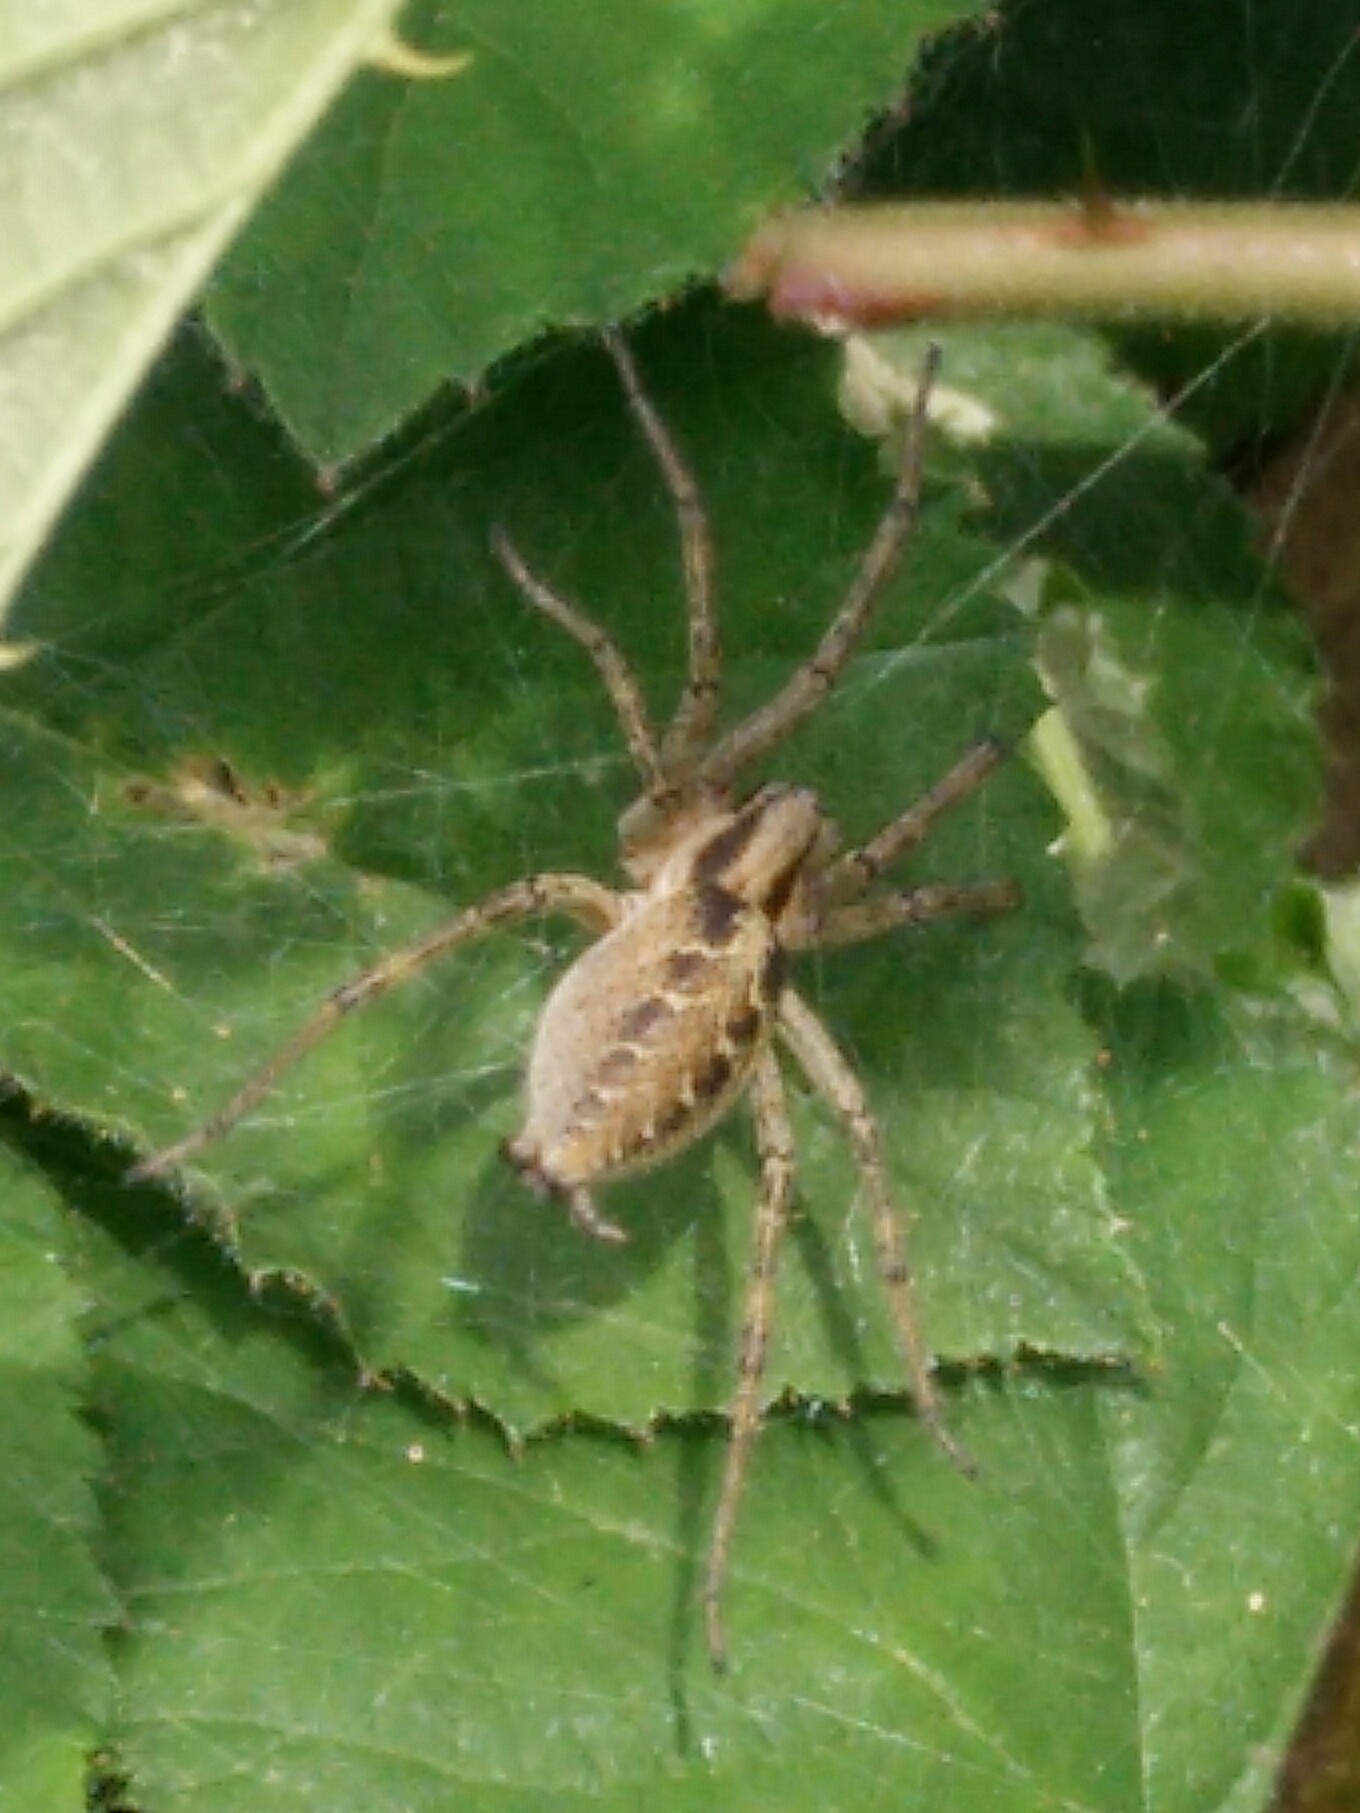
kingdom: Animalia
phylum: Arthropoda
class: Arachnida
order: Araneae
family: Agelenidae
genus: Agelena
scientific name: Agelena labyrinthica
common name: Labyrinth spider
